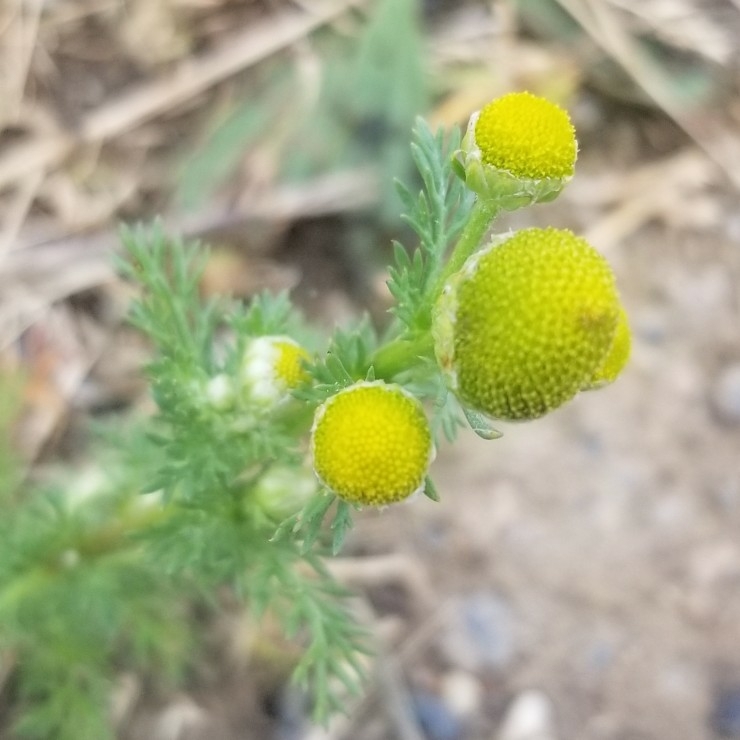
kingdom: Plantae
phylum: Tracheophyta
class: Magnoliopsida
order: Asterales
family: Asteraceae
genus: Matricaria
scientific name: Matricaria discoidea
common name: Disc mayweed
